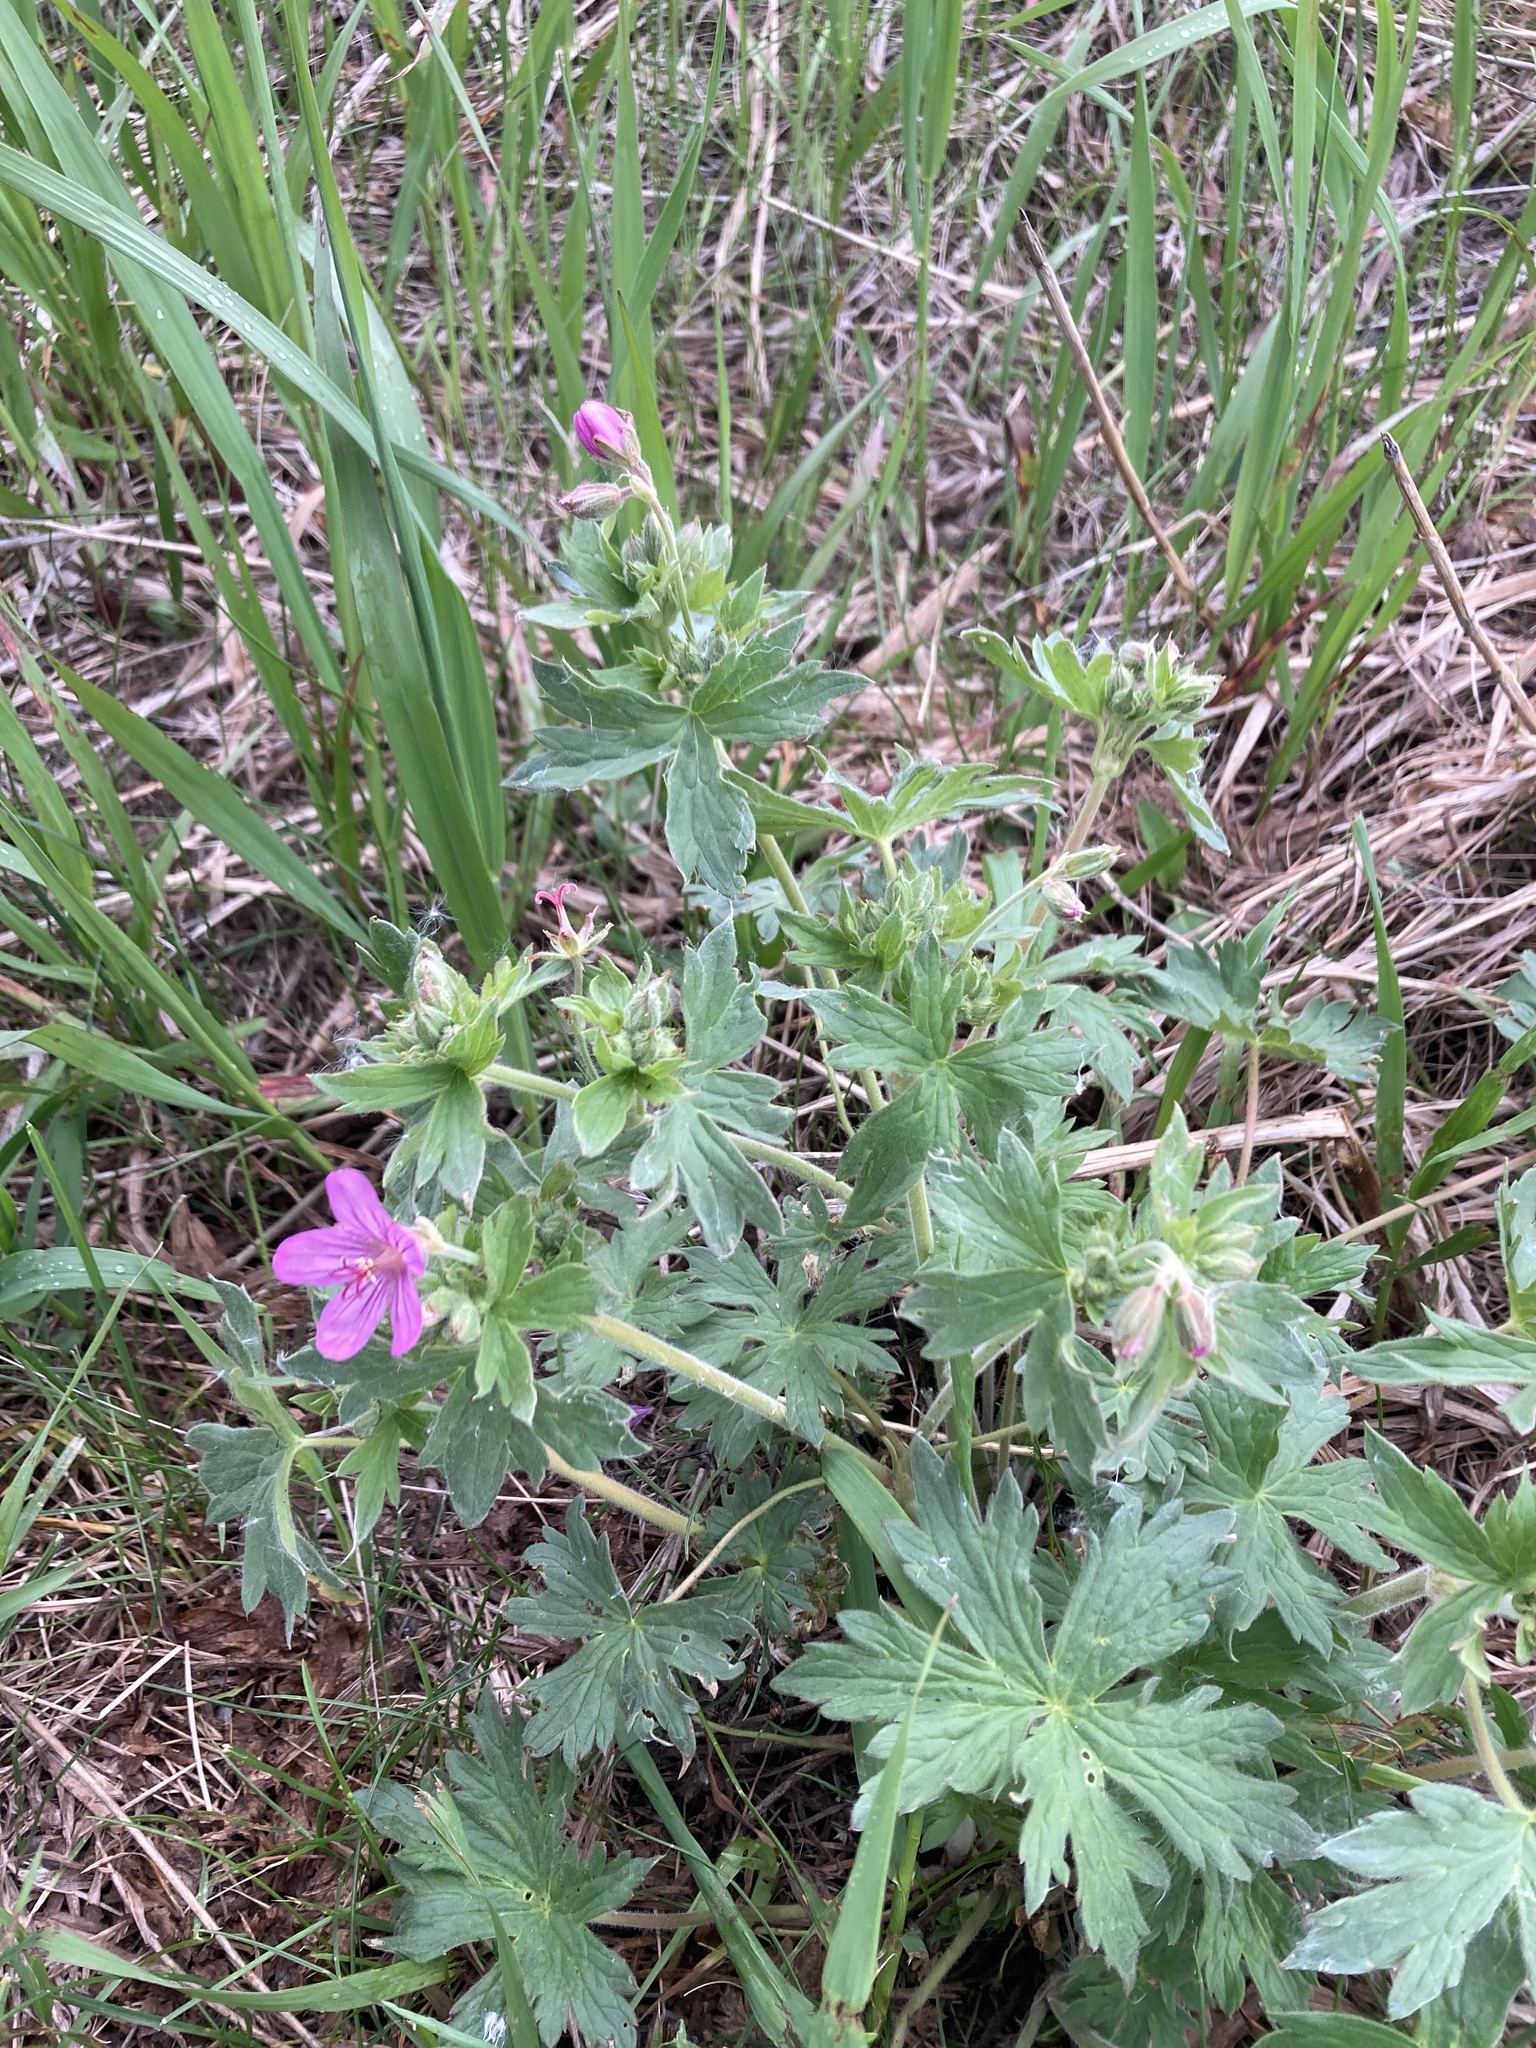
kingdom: Plantae
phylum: Tracheophyta
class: Magnoliopsida
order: Geraniales
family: Geraniaceae
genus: Geranium
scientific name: Geranium viscosissimum
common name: Purple geranium
